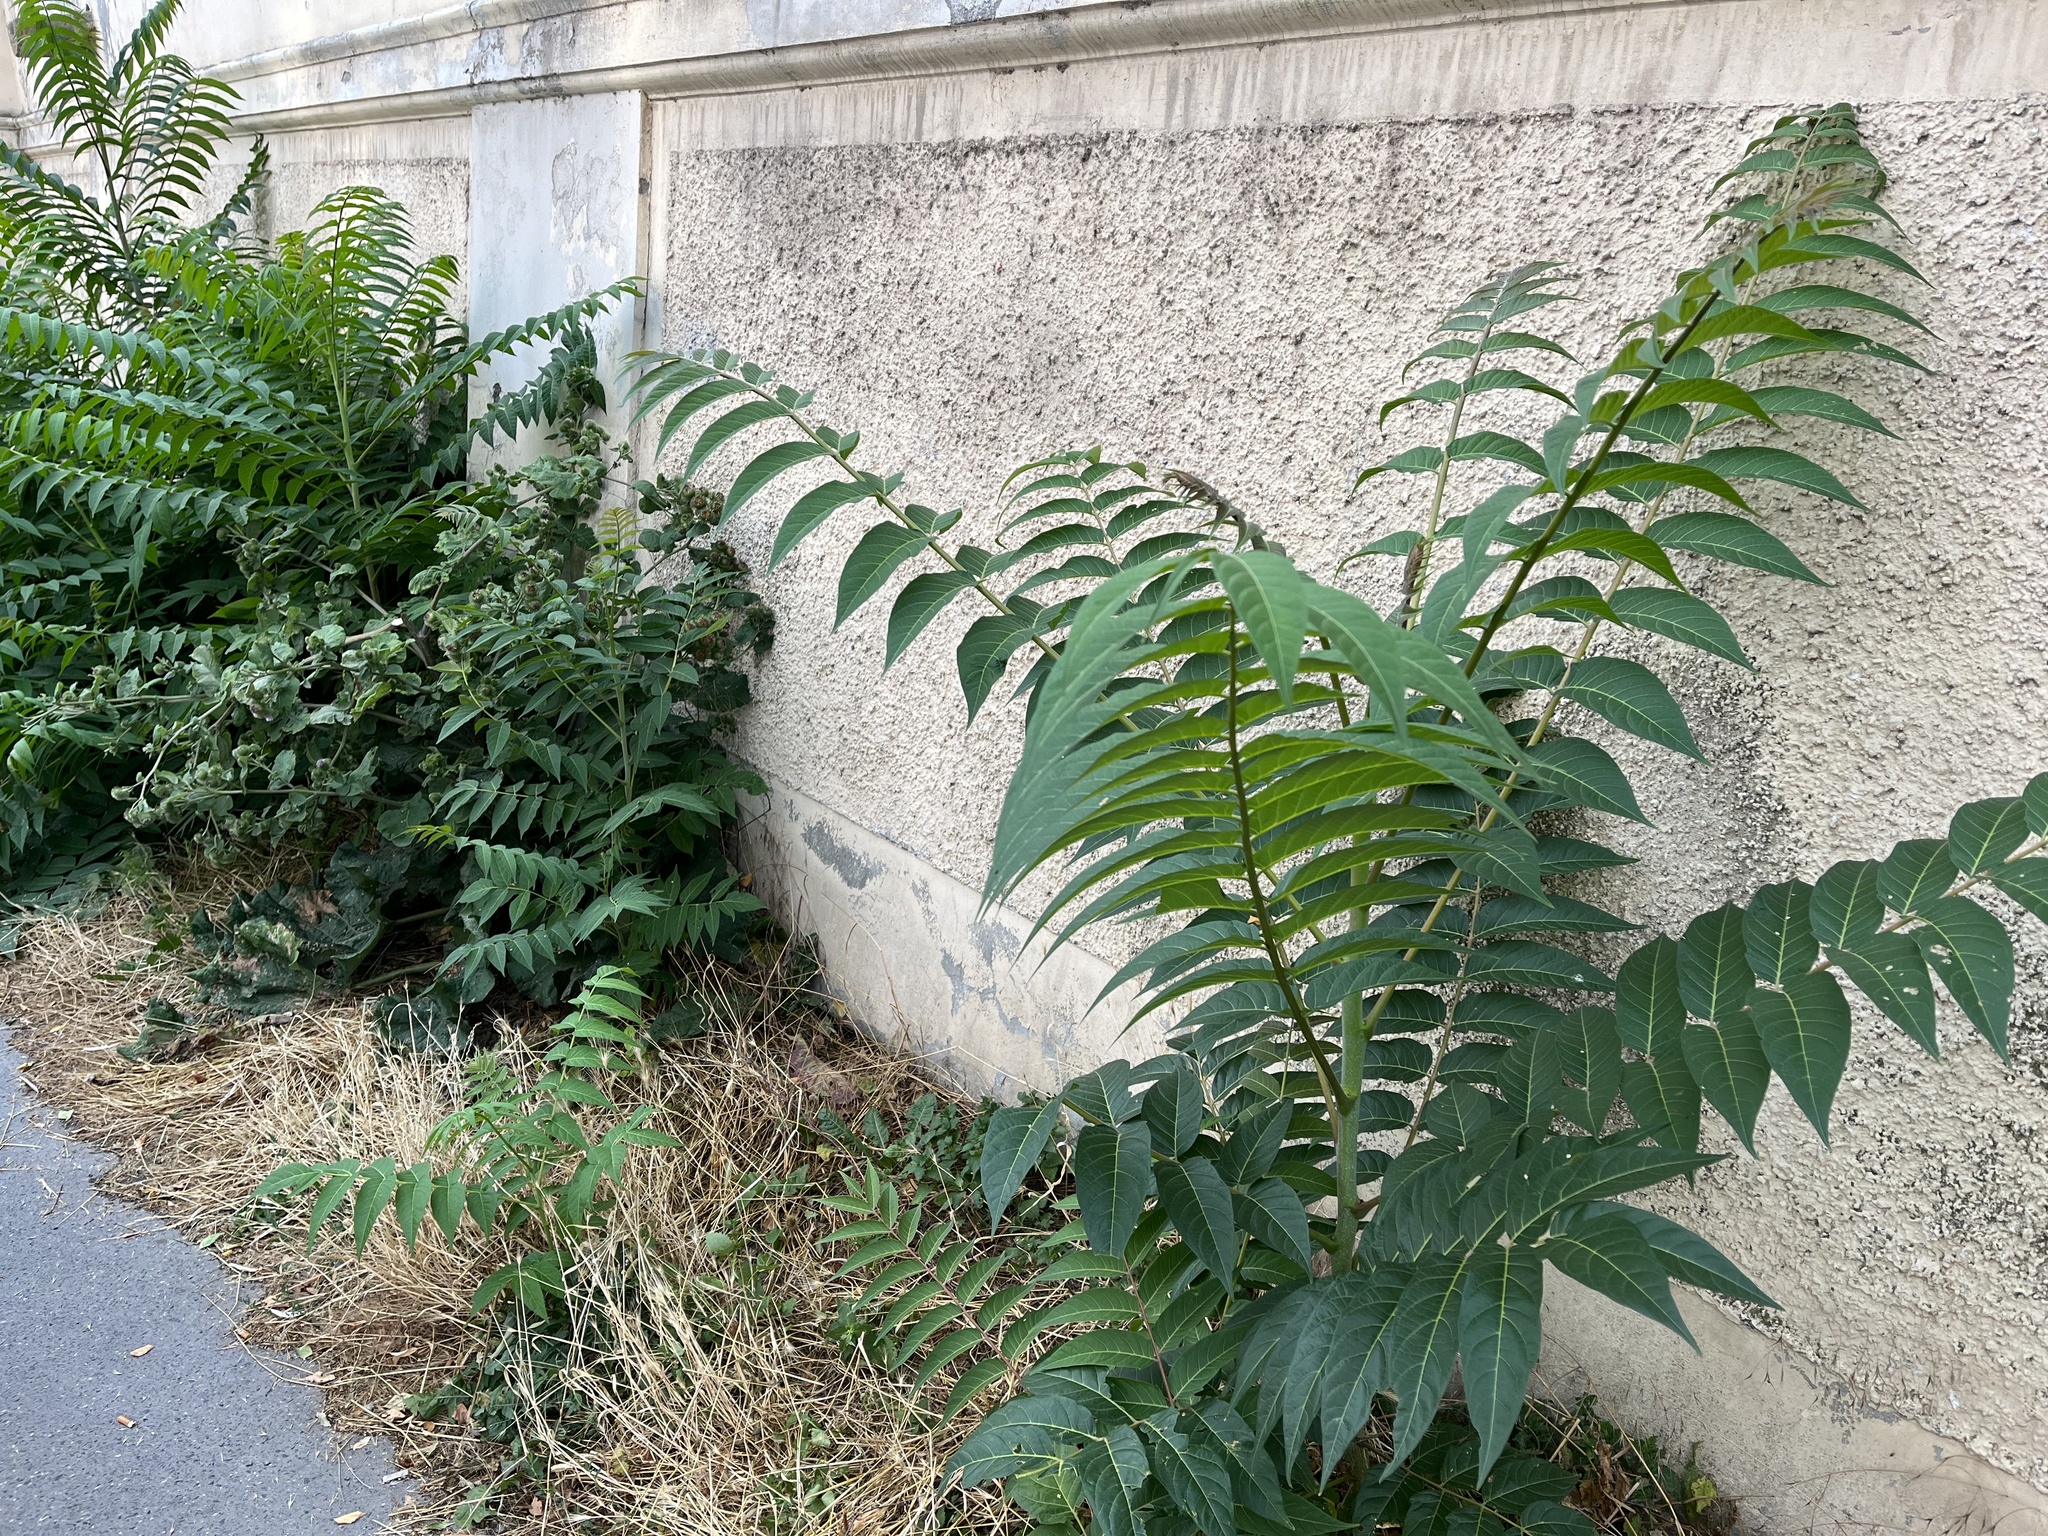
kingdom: Plantae
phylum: Tracheophyta
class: Magnoliopsida
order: Sapindales
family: Simaroubaceae
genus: Ailanthus
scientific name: Ailanthus altissima
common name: Tree-of-heaven
